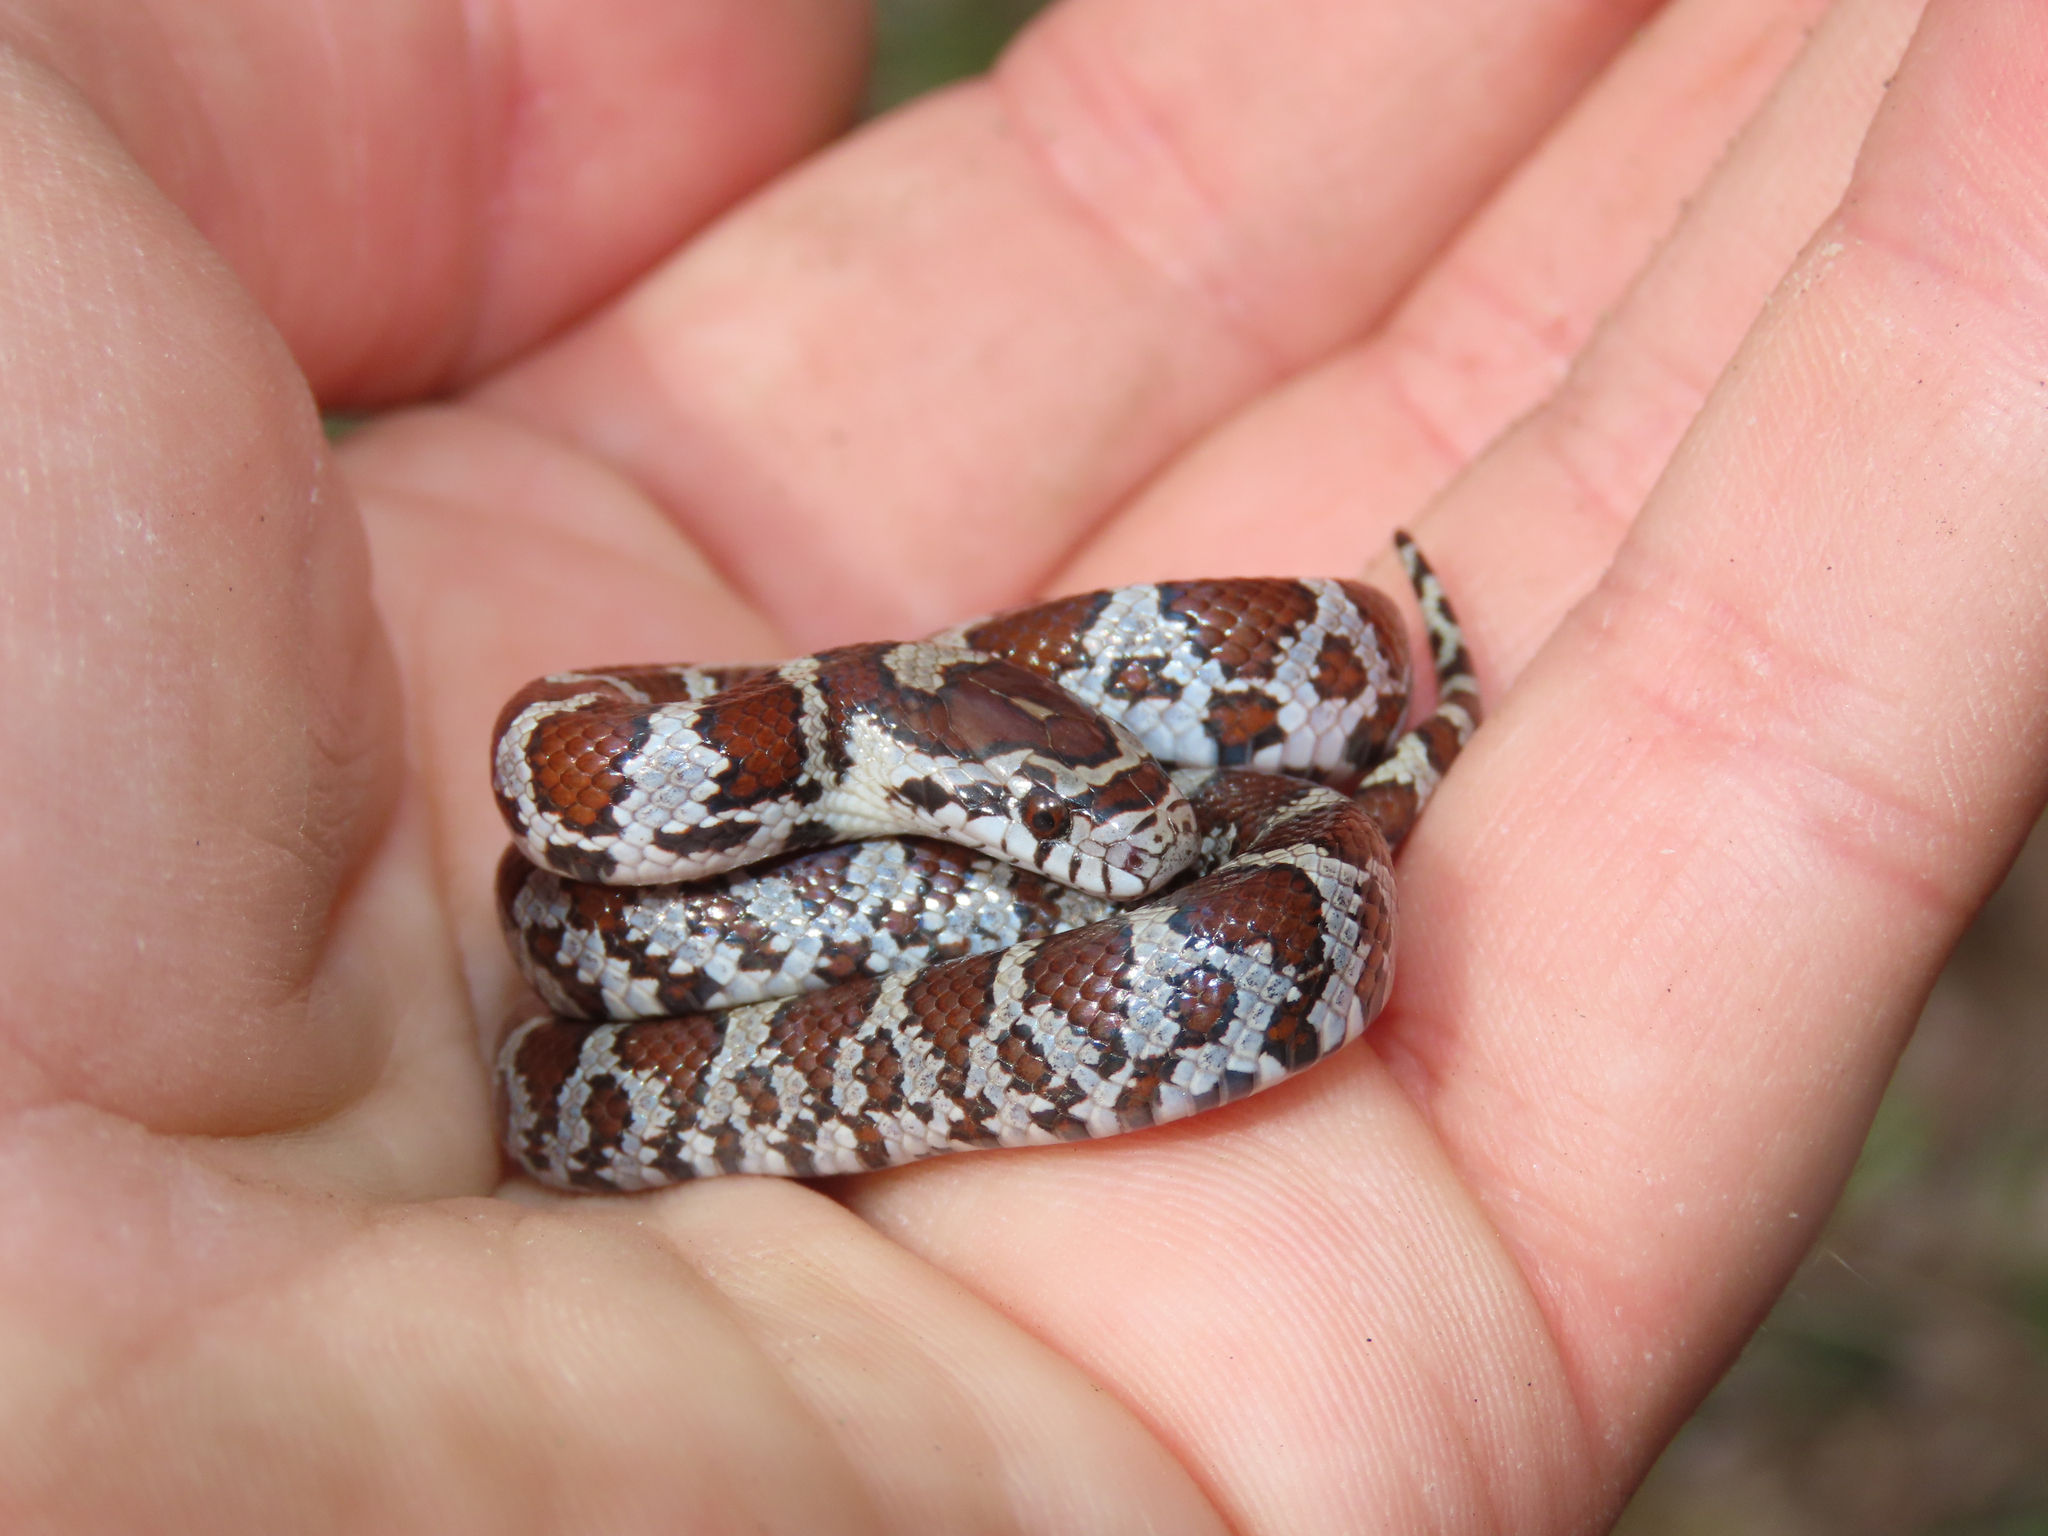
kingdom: Animalia
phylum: Chordata
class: Squamata
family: Colubridae
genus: Lampropeltis
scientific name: Lampropeltis triangulum
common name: Eastern milksnake
